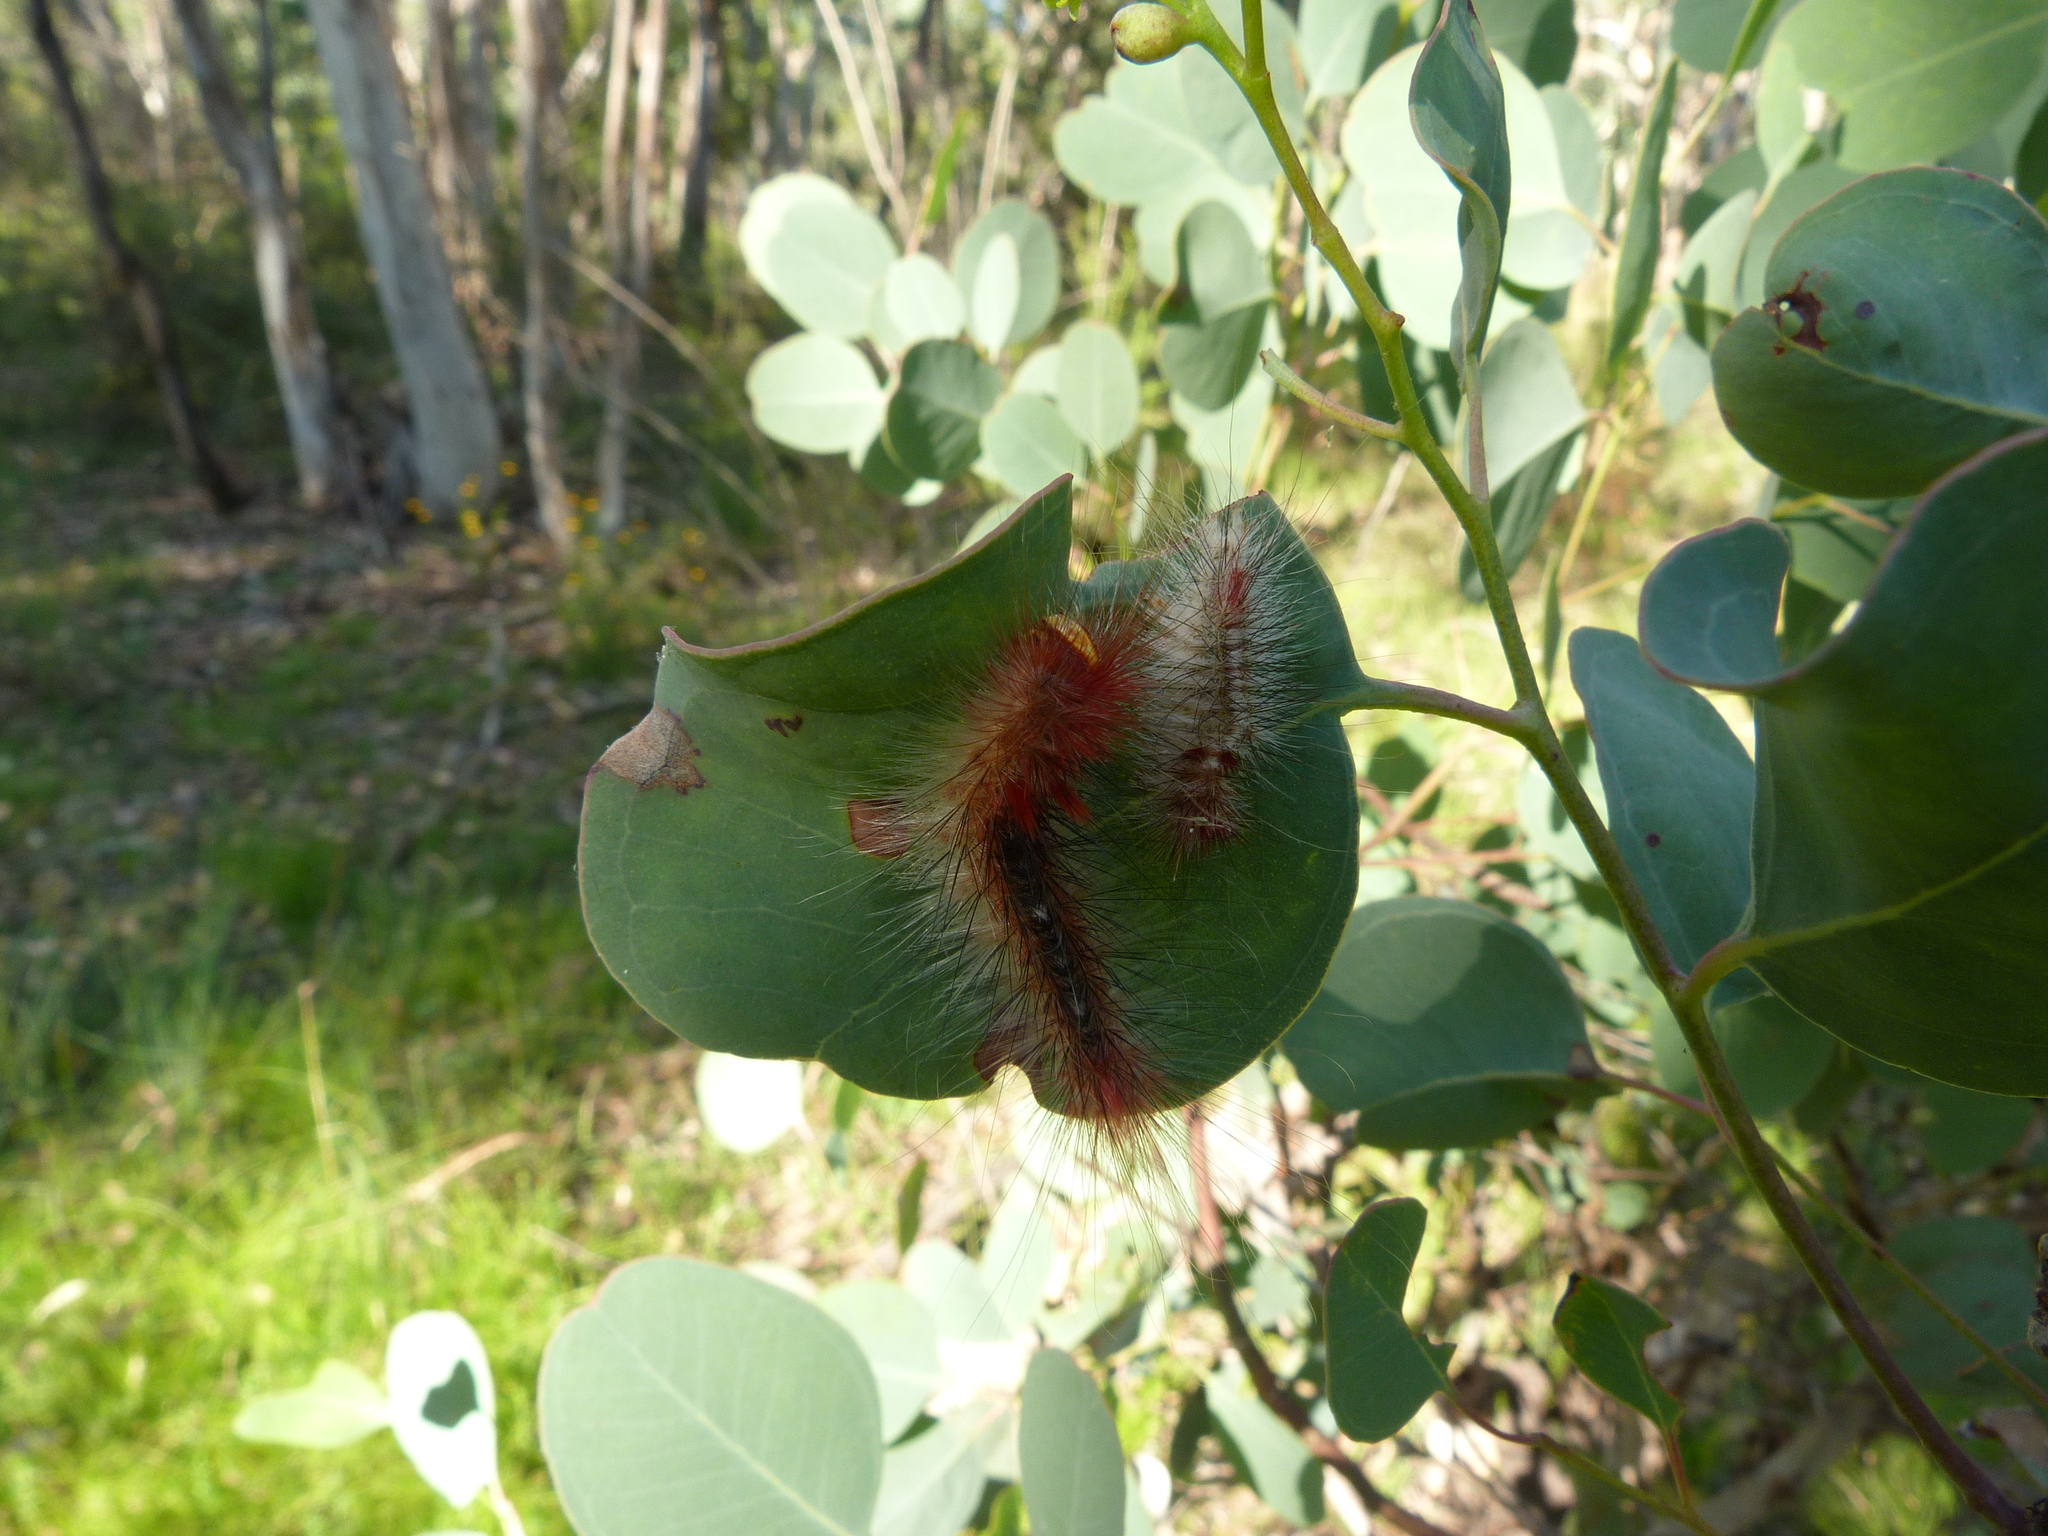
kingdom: Animalia
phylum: Arthropoda
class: Insecta
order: Lepidoptera
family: Anthelidae
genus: Chenuala
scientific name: Chenuala heliaspis
